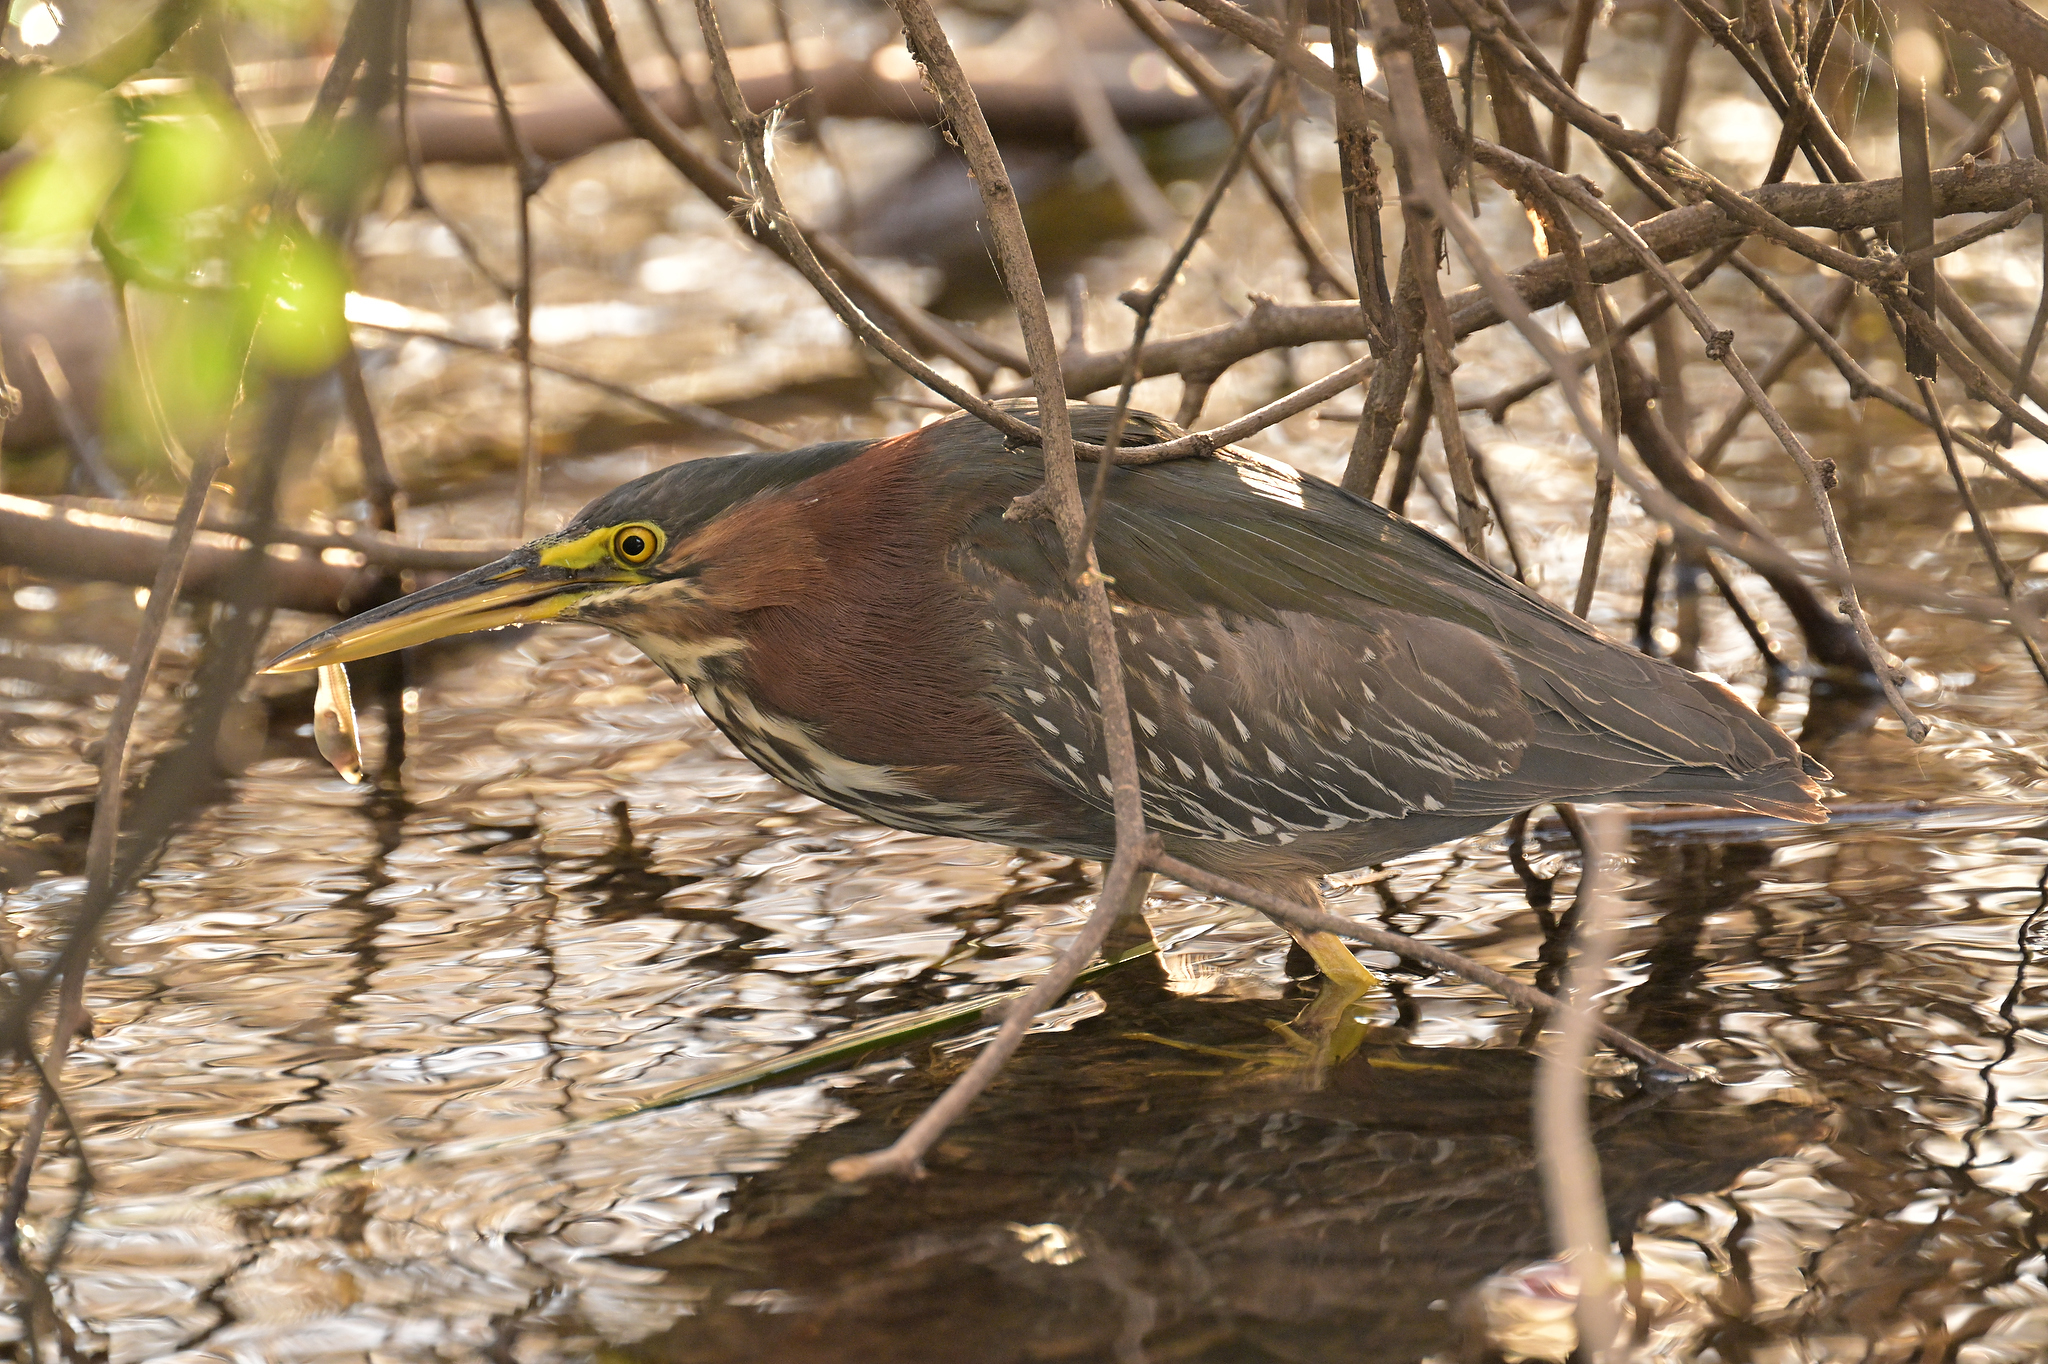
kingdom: Animalia
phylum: Chordata
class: Aves
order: Pelecaniformes
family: Ardeidae
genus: Butorides
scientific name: Butorides virescens
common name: Green heron
